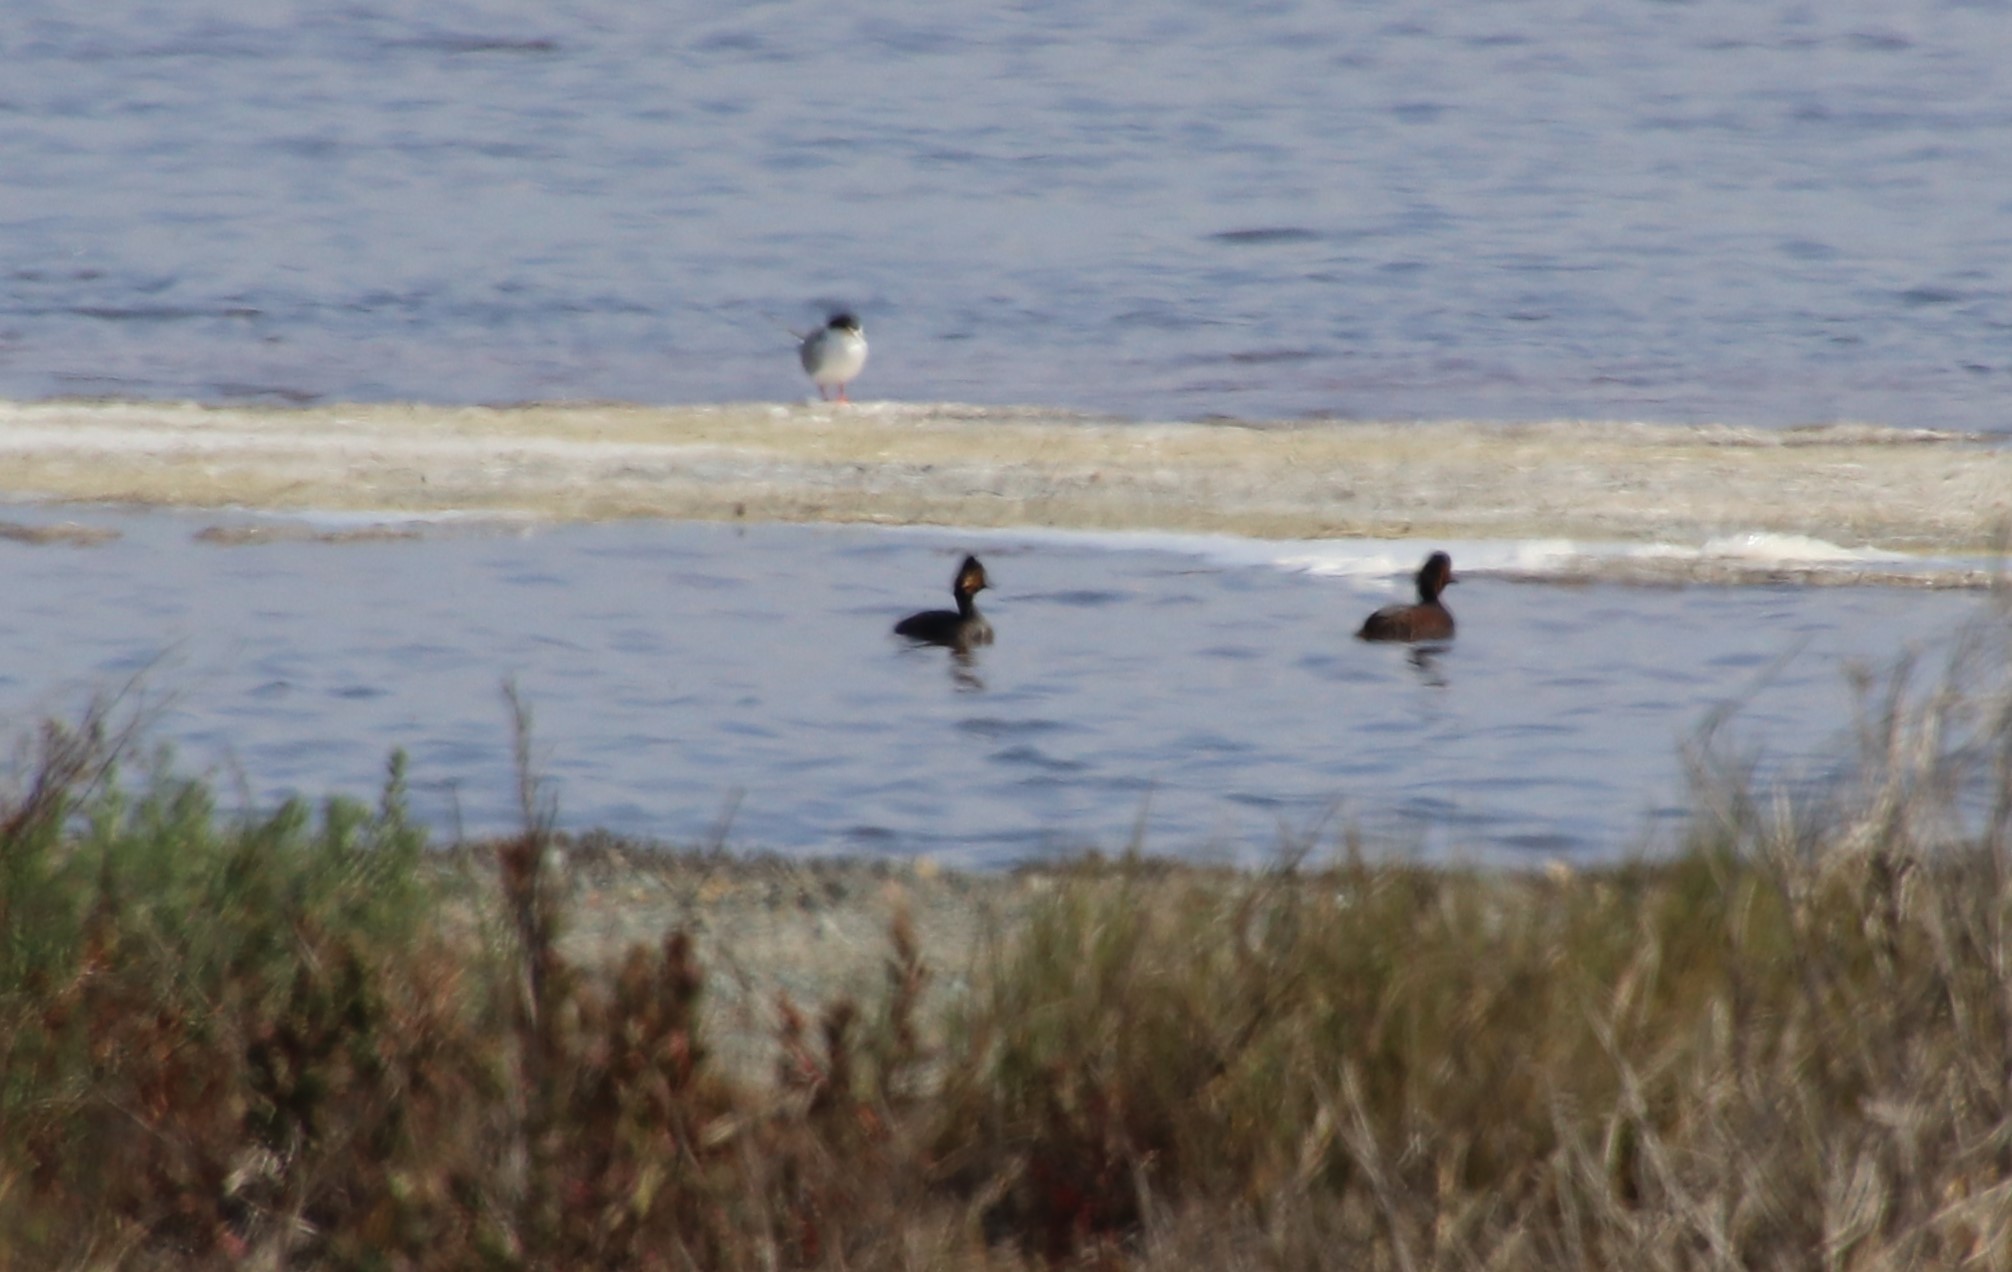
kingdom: Animalia
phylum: Chordata
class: Aves
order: Podicipediformes
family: Podicipedidae
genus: Podiceps
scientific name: Podiceps nigricollis
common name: Black-necked grebe
